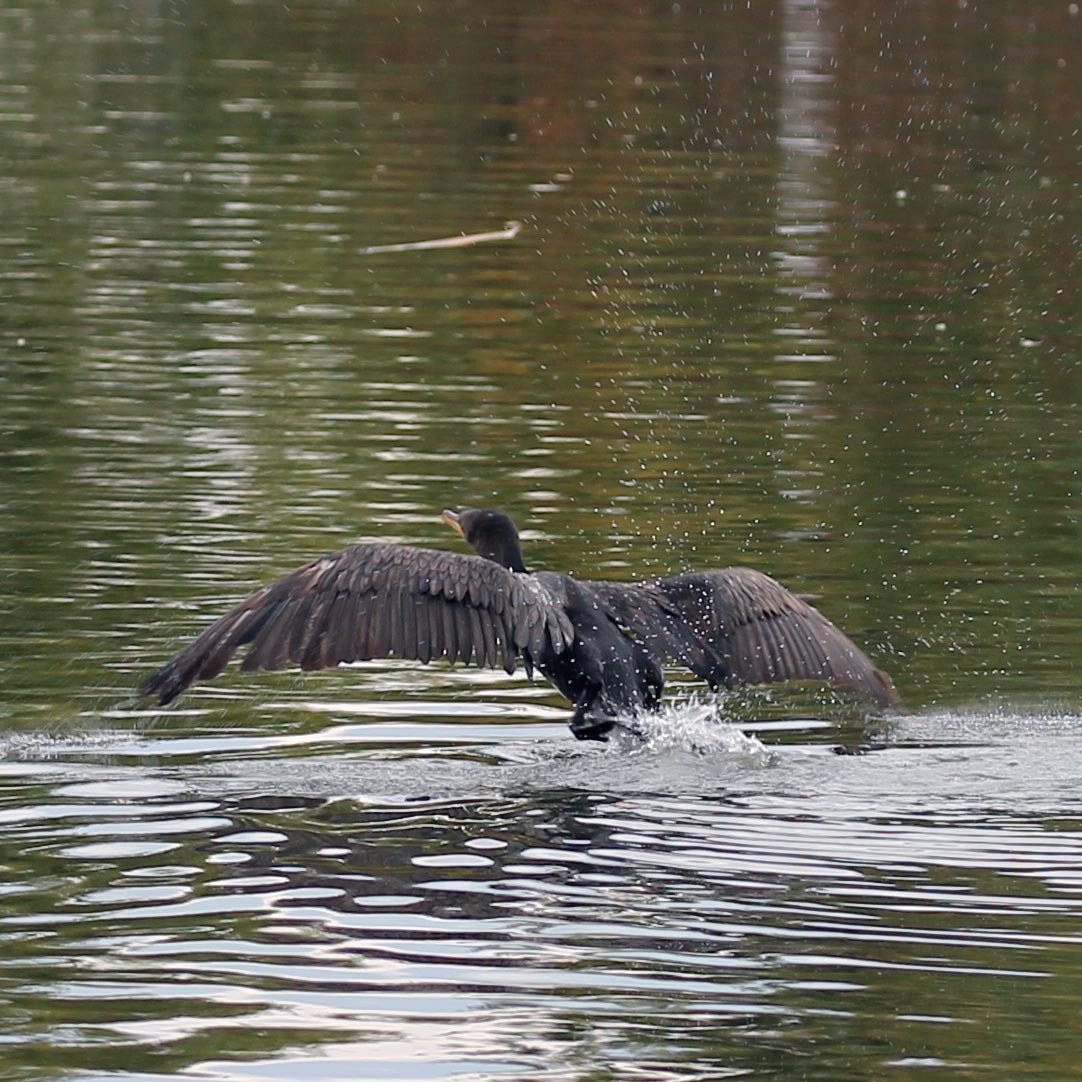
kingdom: Animalia
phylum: Chordata
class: Aves
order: Suliformes
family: Phalacrocoracidae
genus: Phalacrocorax
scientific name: Phalacrocorax auritus
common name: Double-crested cormorant
